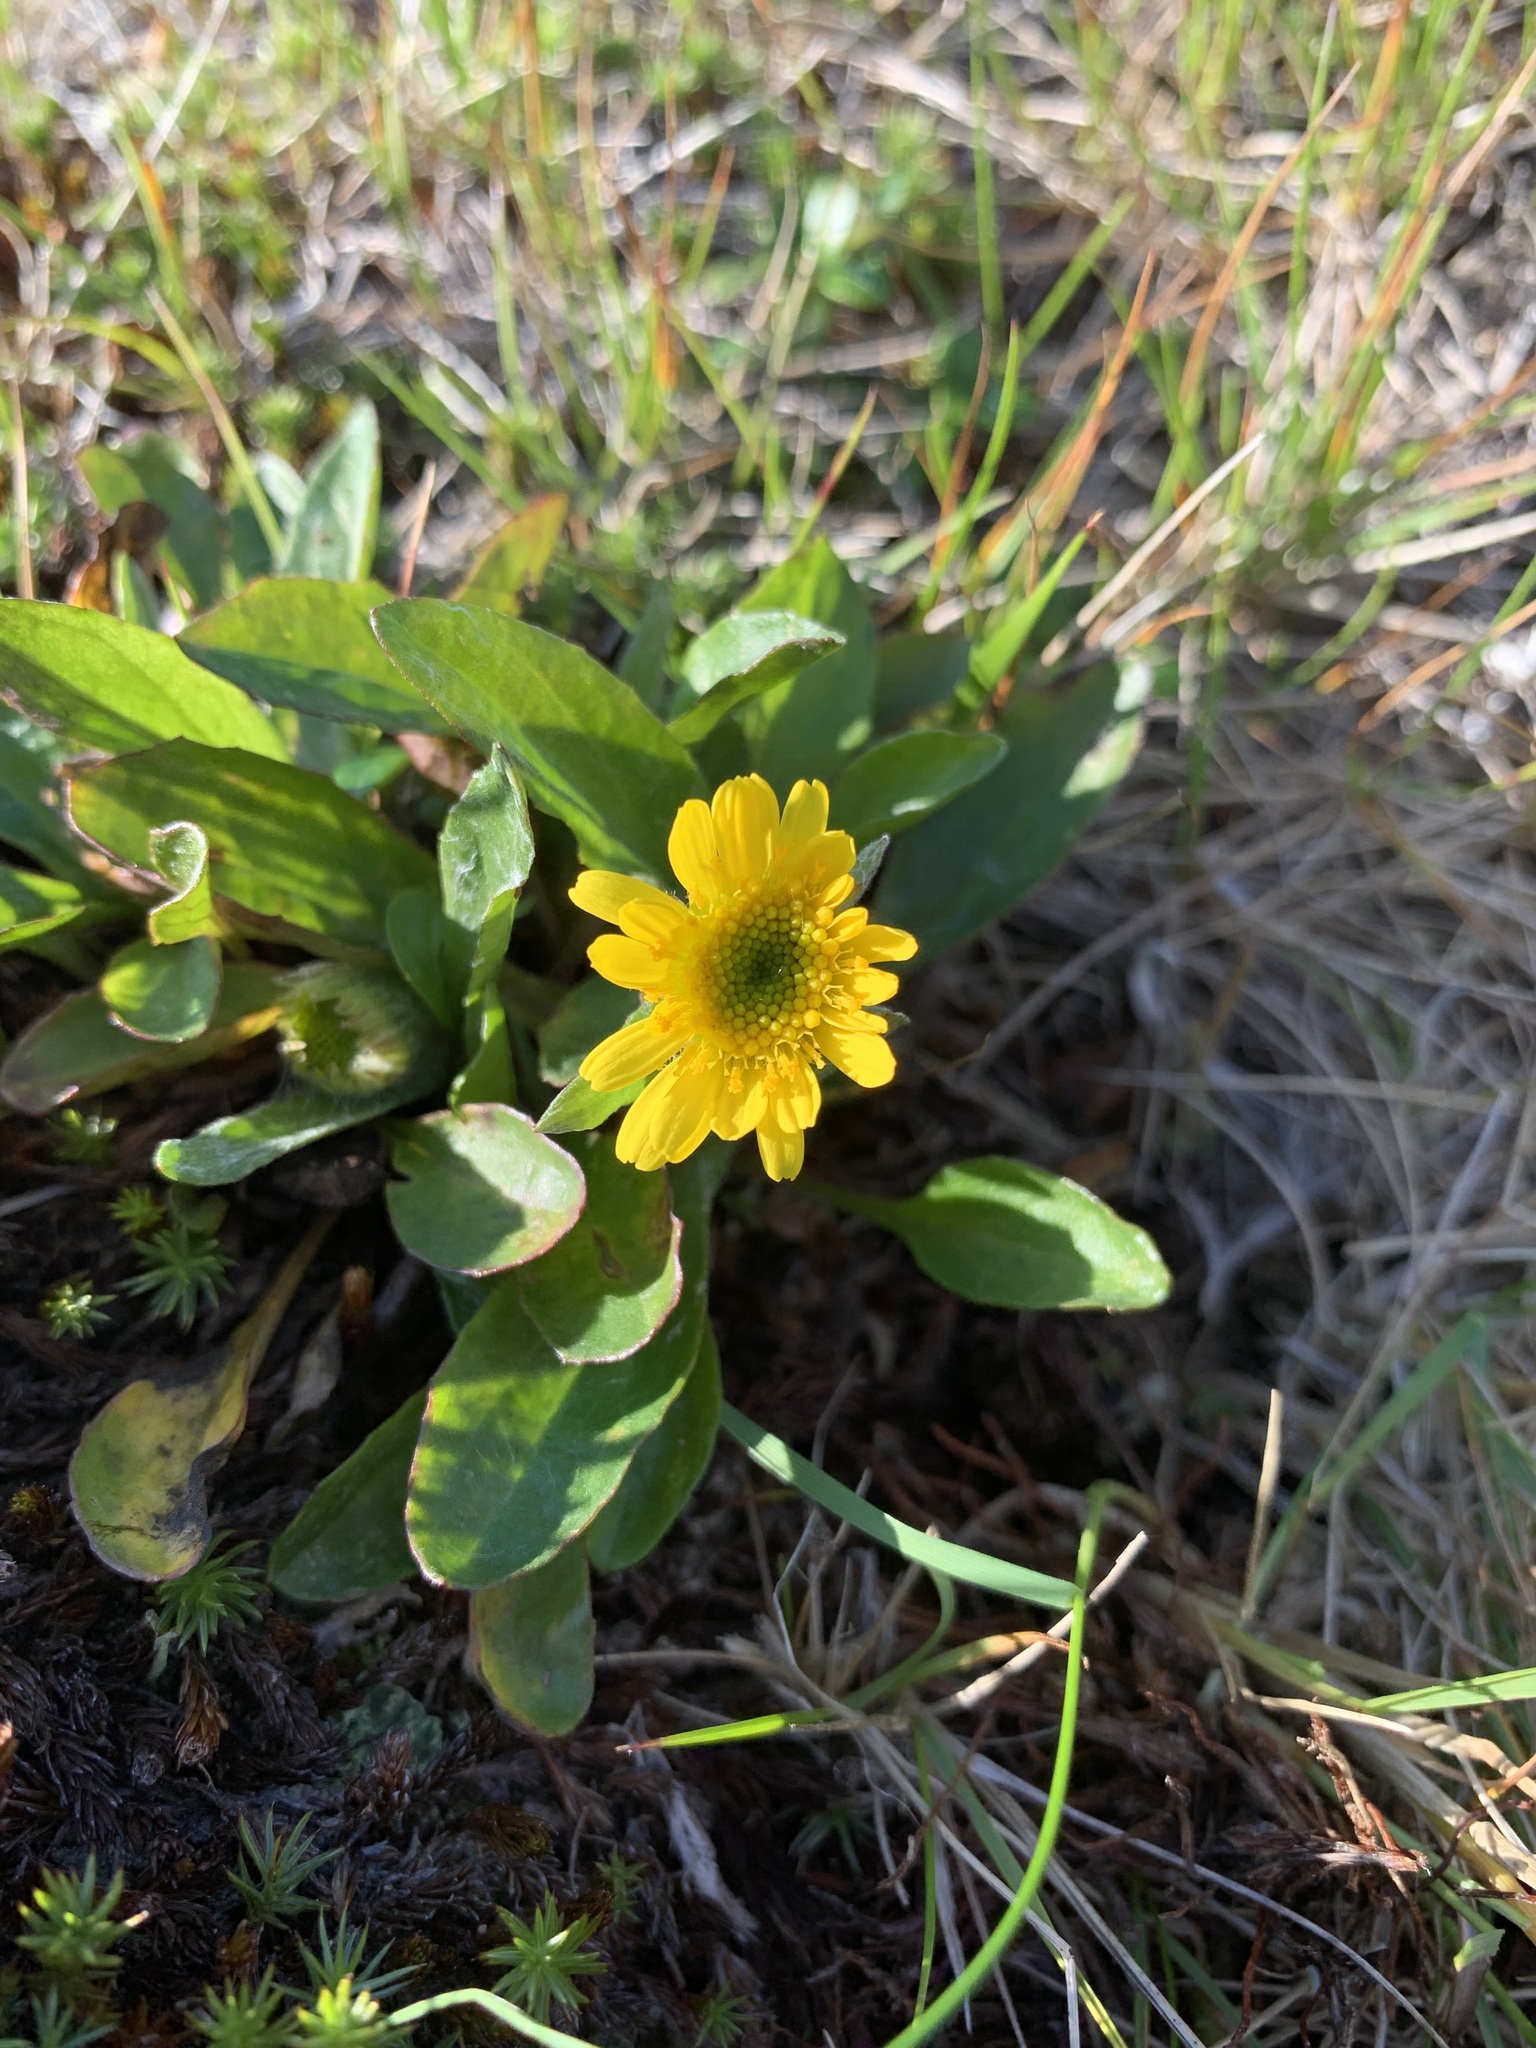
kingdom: Plantae
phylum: Tracheophyta
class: Magnoliopsida
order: Asterales
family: Asteraceae
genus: Tephroseris
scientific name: Tephroseris integrifolia
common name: Field fleawort
